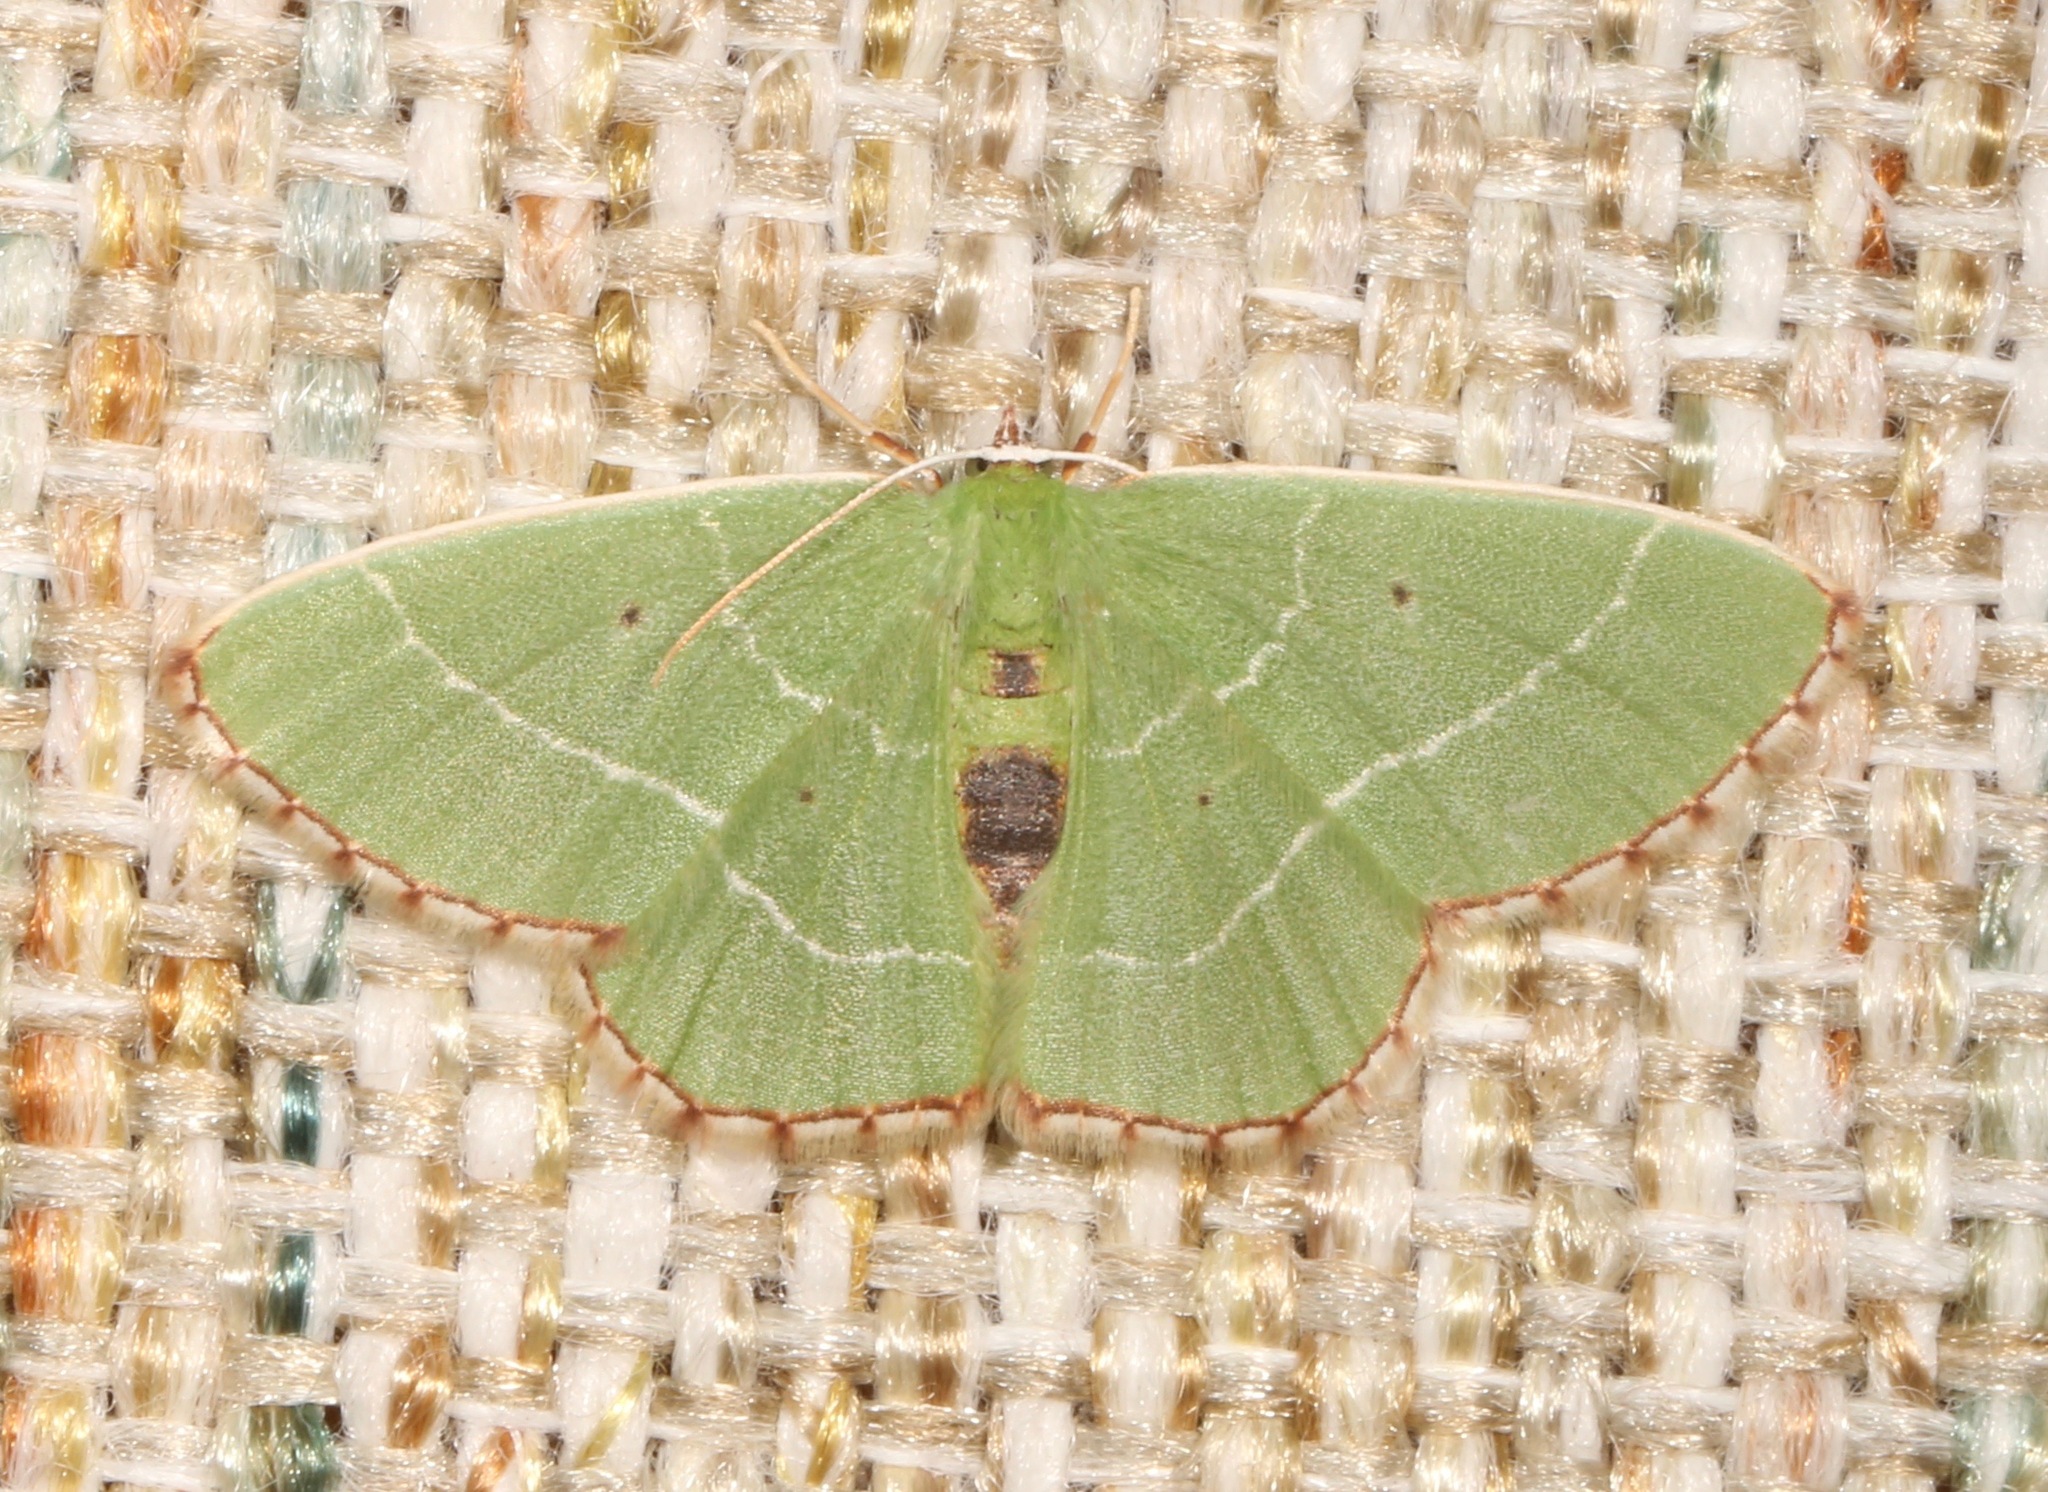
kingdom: Animalia
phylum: Arthropoda
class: Insecta
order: Lepidoptera
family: Geometridae
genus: Nemoria
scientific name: Nemoria saturiba
